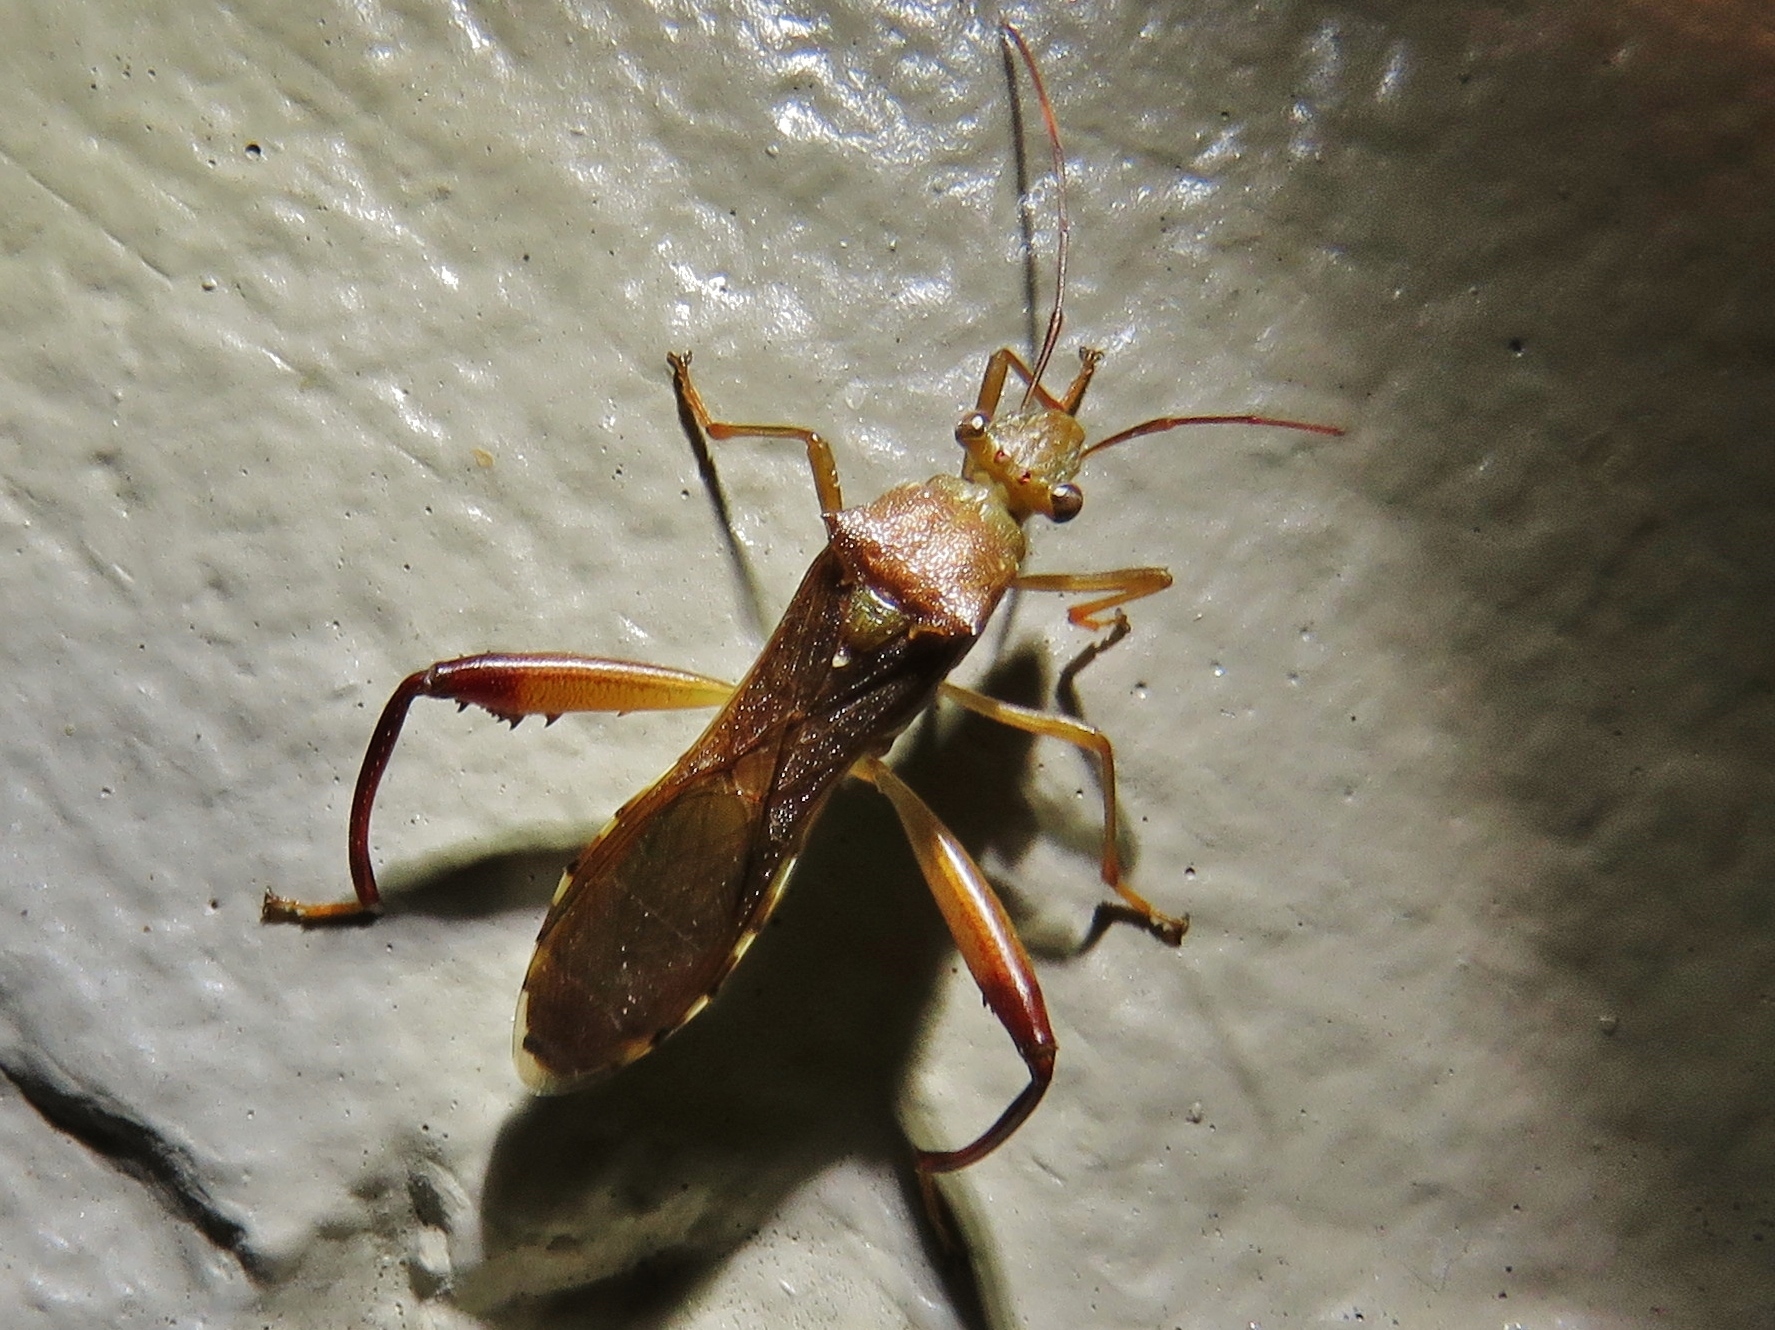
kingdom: Animalia
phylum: Arthropoda
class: Insecta
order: Hemiptera
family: Alydidae
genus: Hyalymenus
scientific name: Hyalymenus tarsatus
